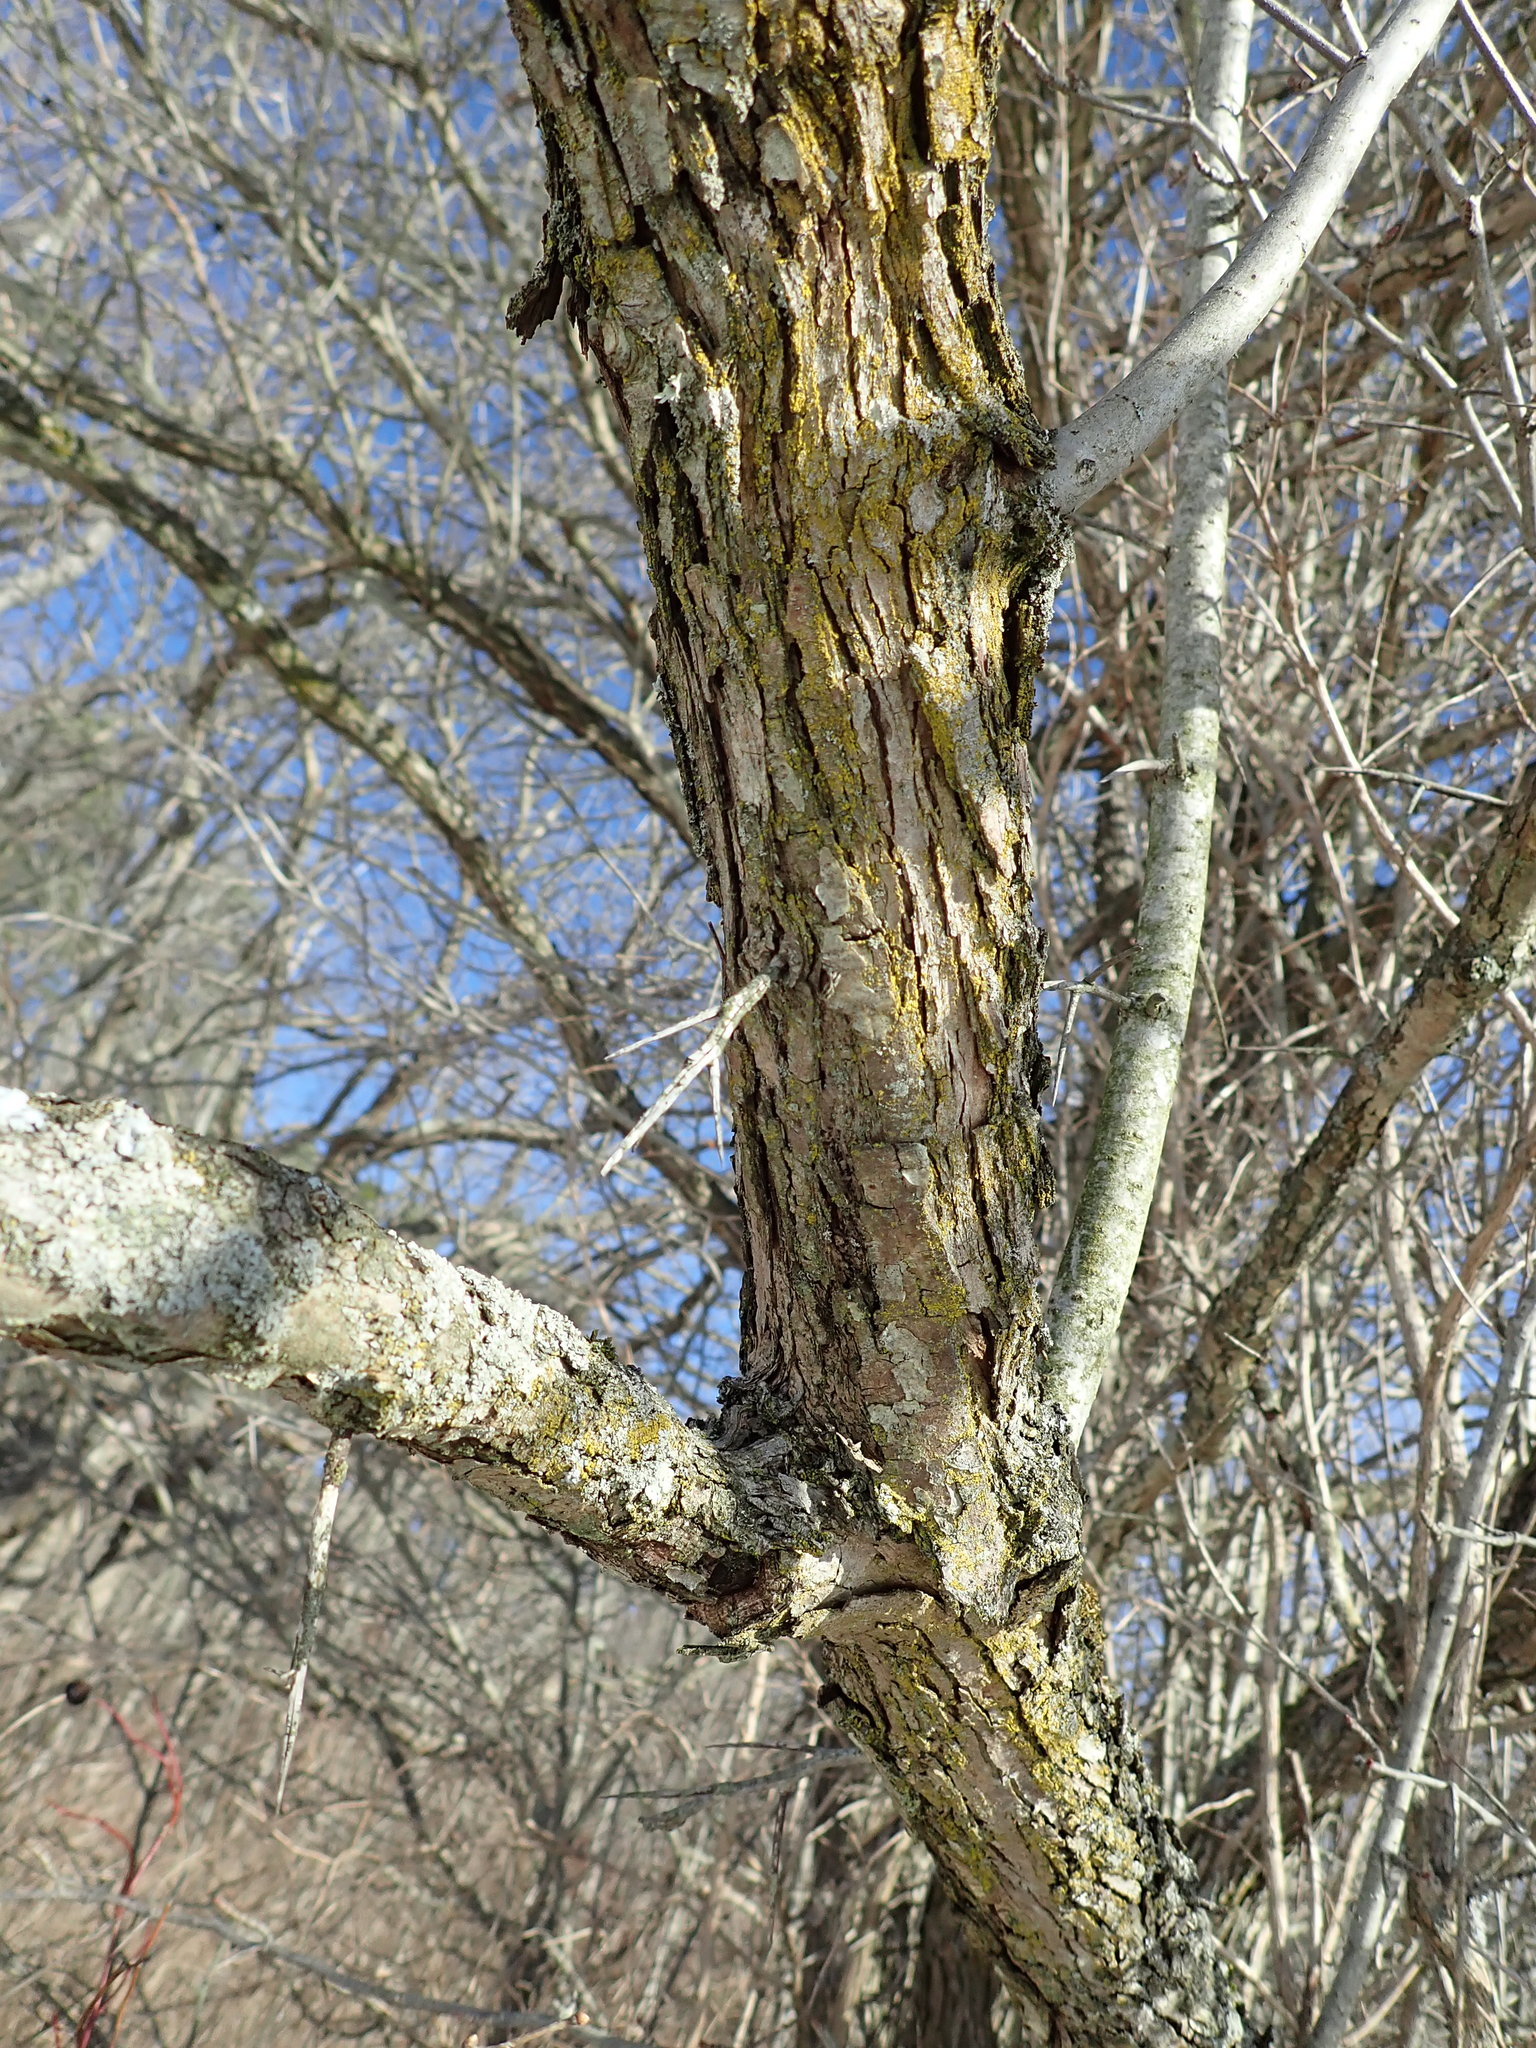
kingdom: Plantae
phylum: Tracheophyta
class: Magnoliopsida
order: Rosales
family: Rosaceae
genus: Crataegus
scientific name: Crataegus
